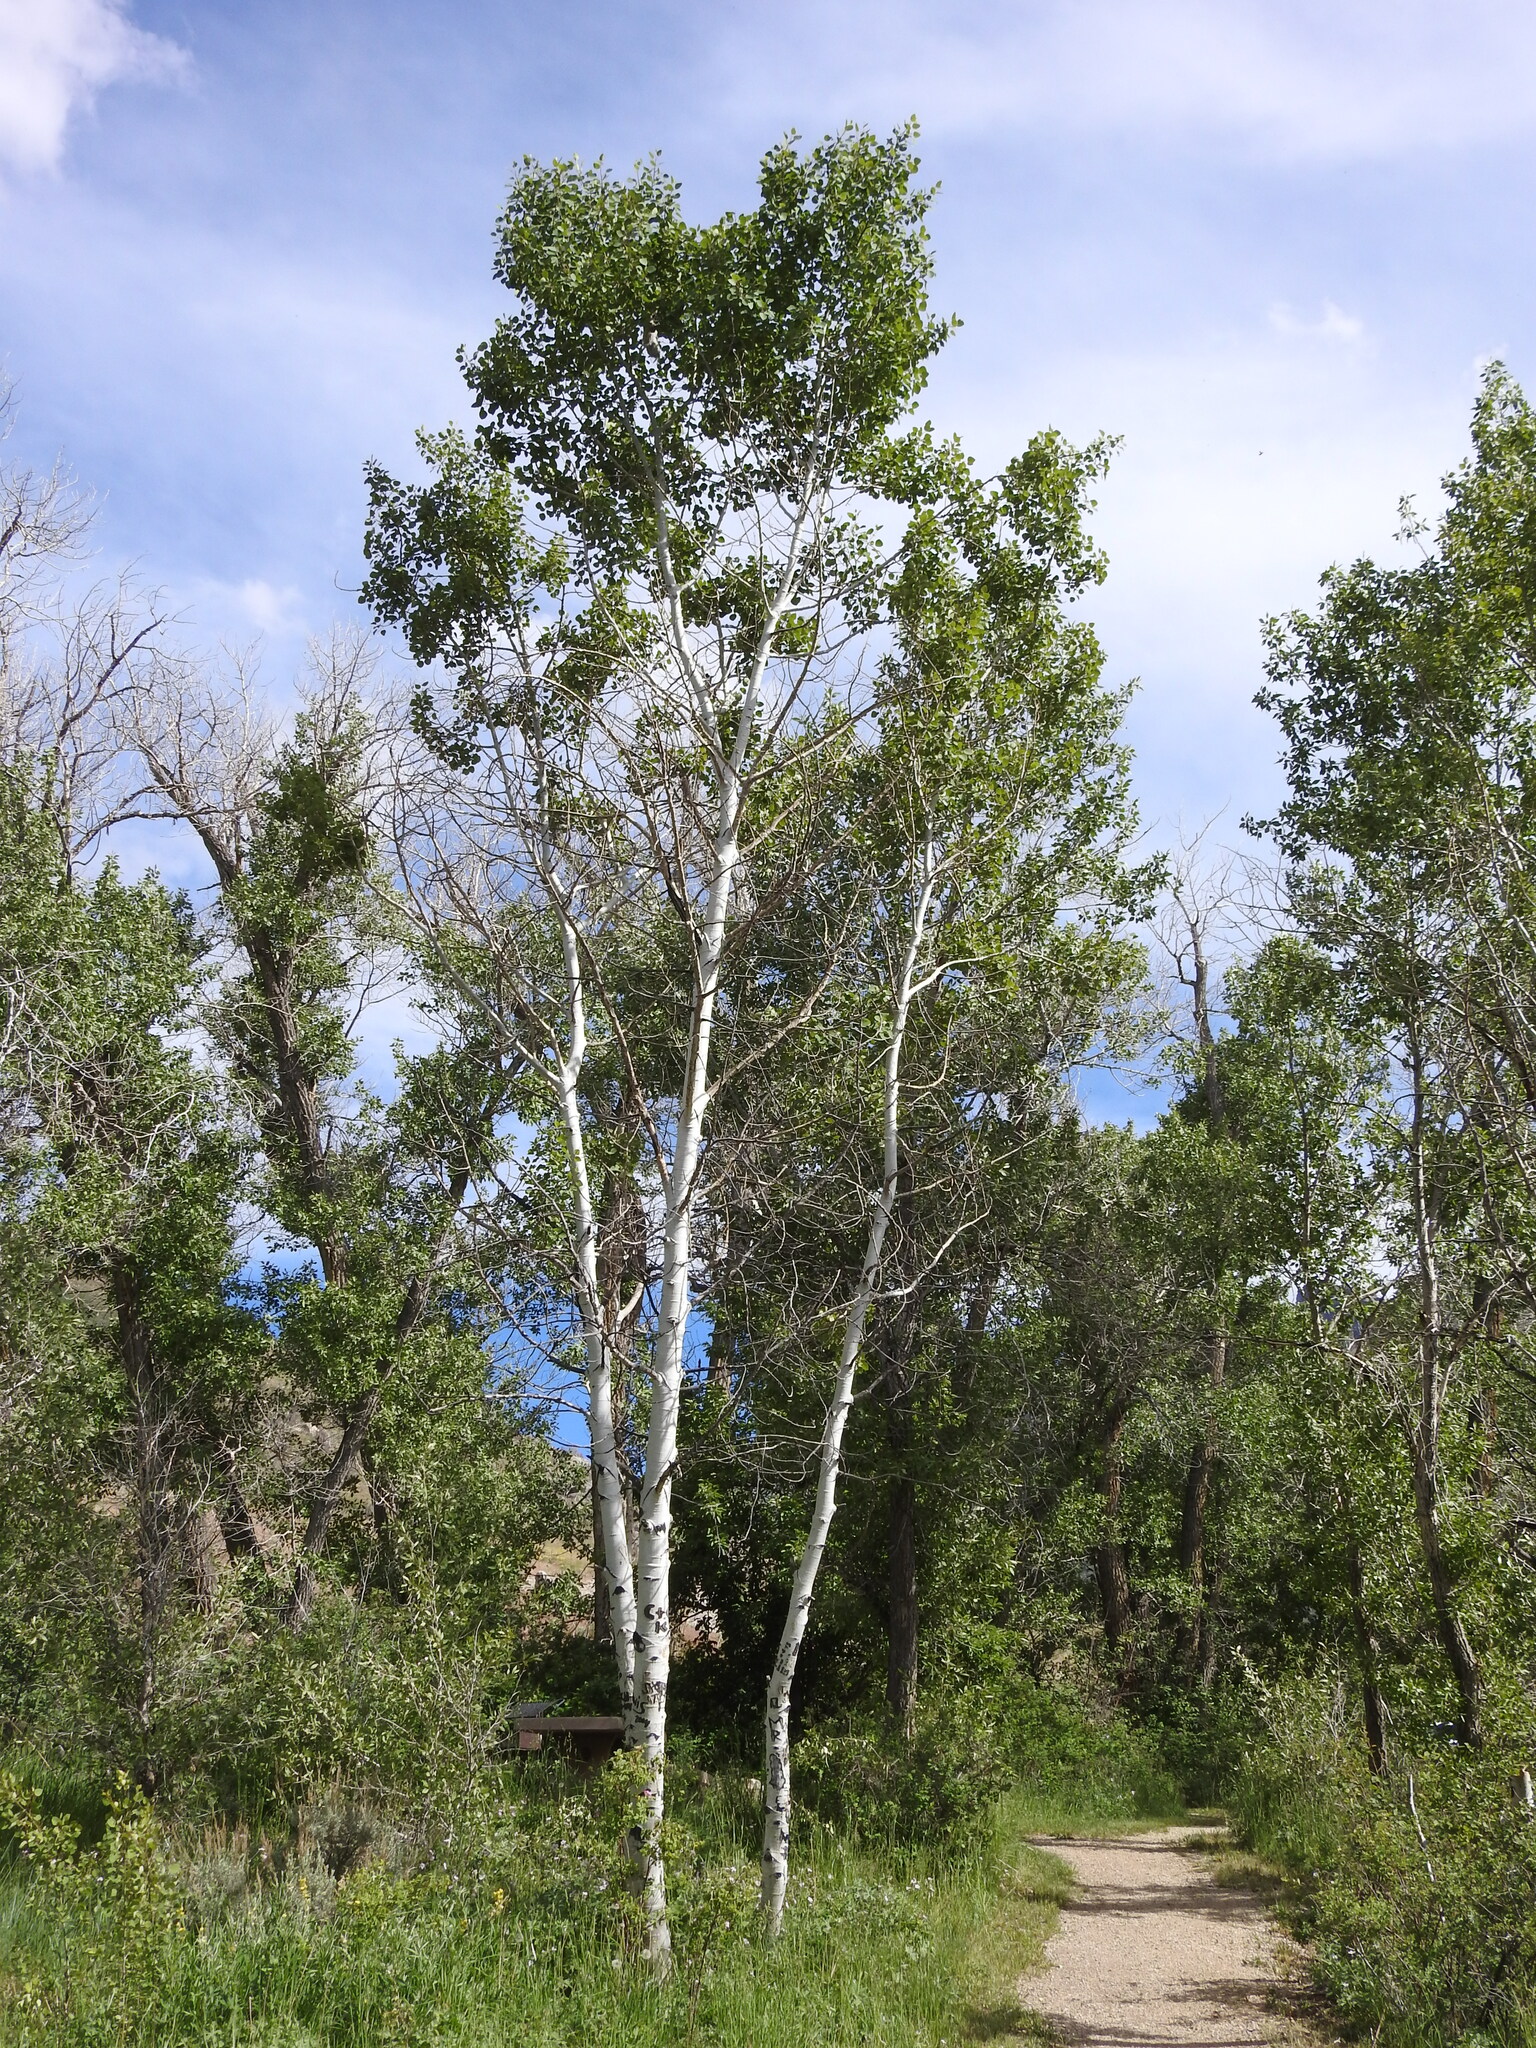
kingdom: Plantae
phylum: Tracheophyta
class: Magnoliopsida
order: Malpighiales
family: Salicaceae
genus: Populus
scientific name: Populus tremuloides
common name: Quaking aspen
